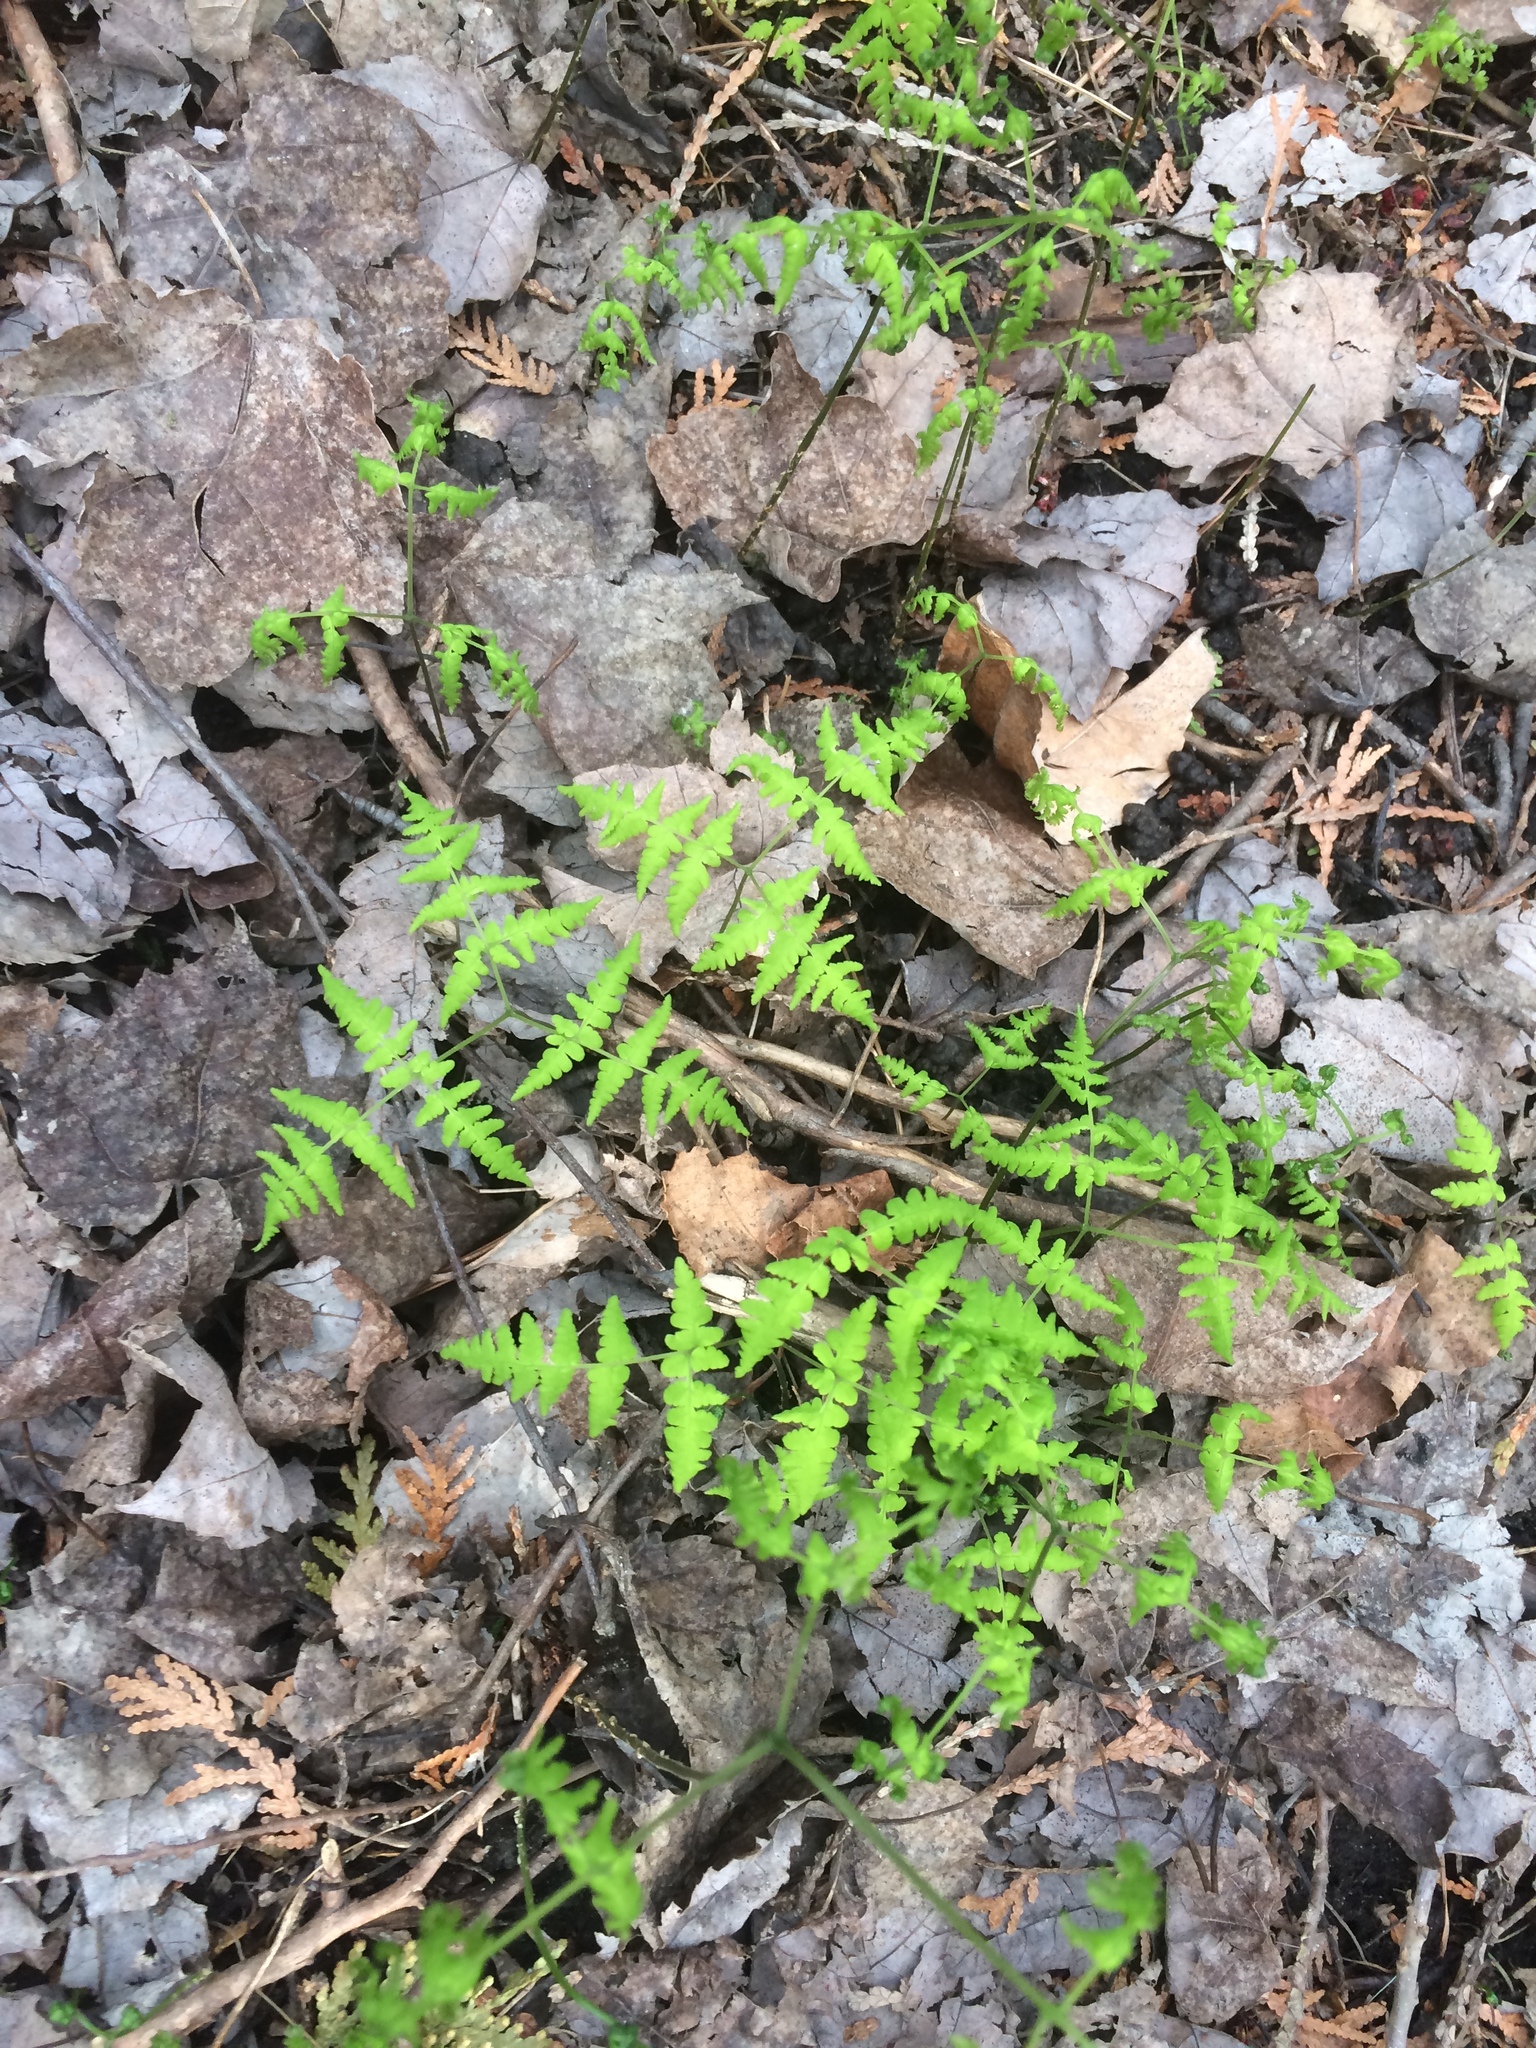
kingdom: Plantae
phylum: Tracheophyta
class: Polypodiopsida
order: Polypodiales
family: Cystopteridaceae
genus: Gymnocarpium
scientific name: Gymnocarpium dryopteris
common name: Oak fern
